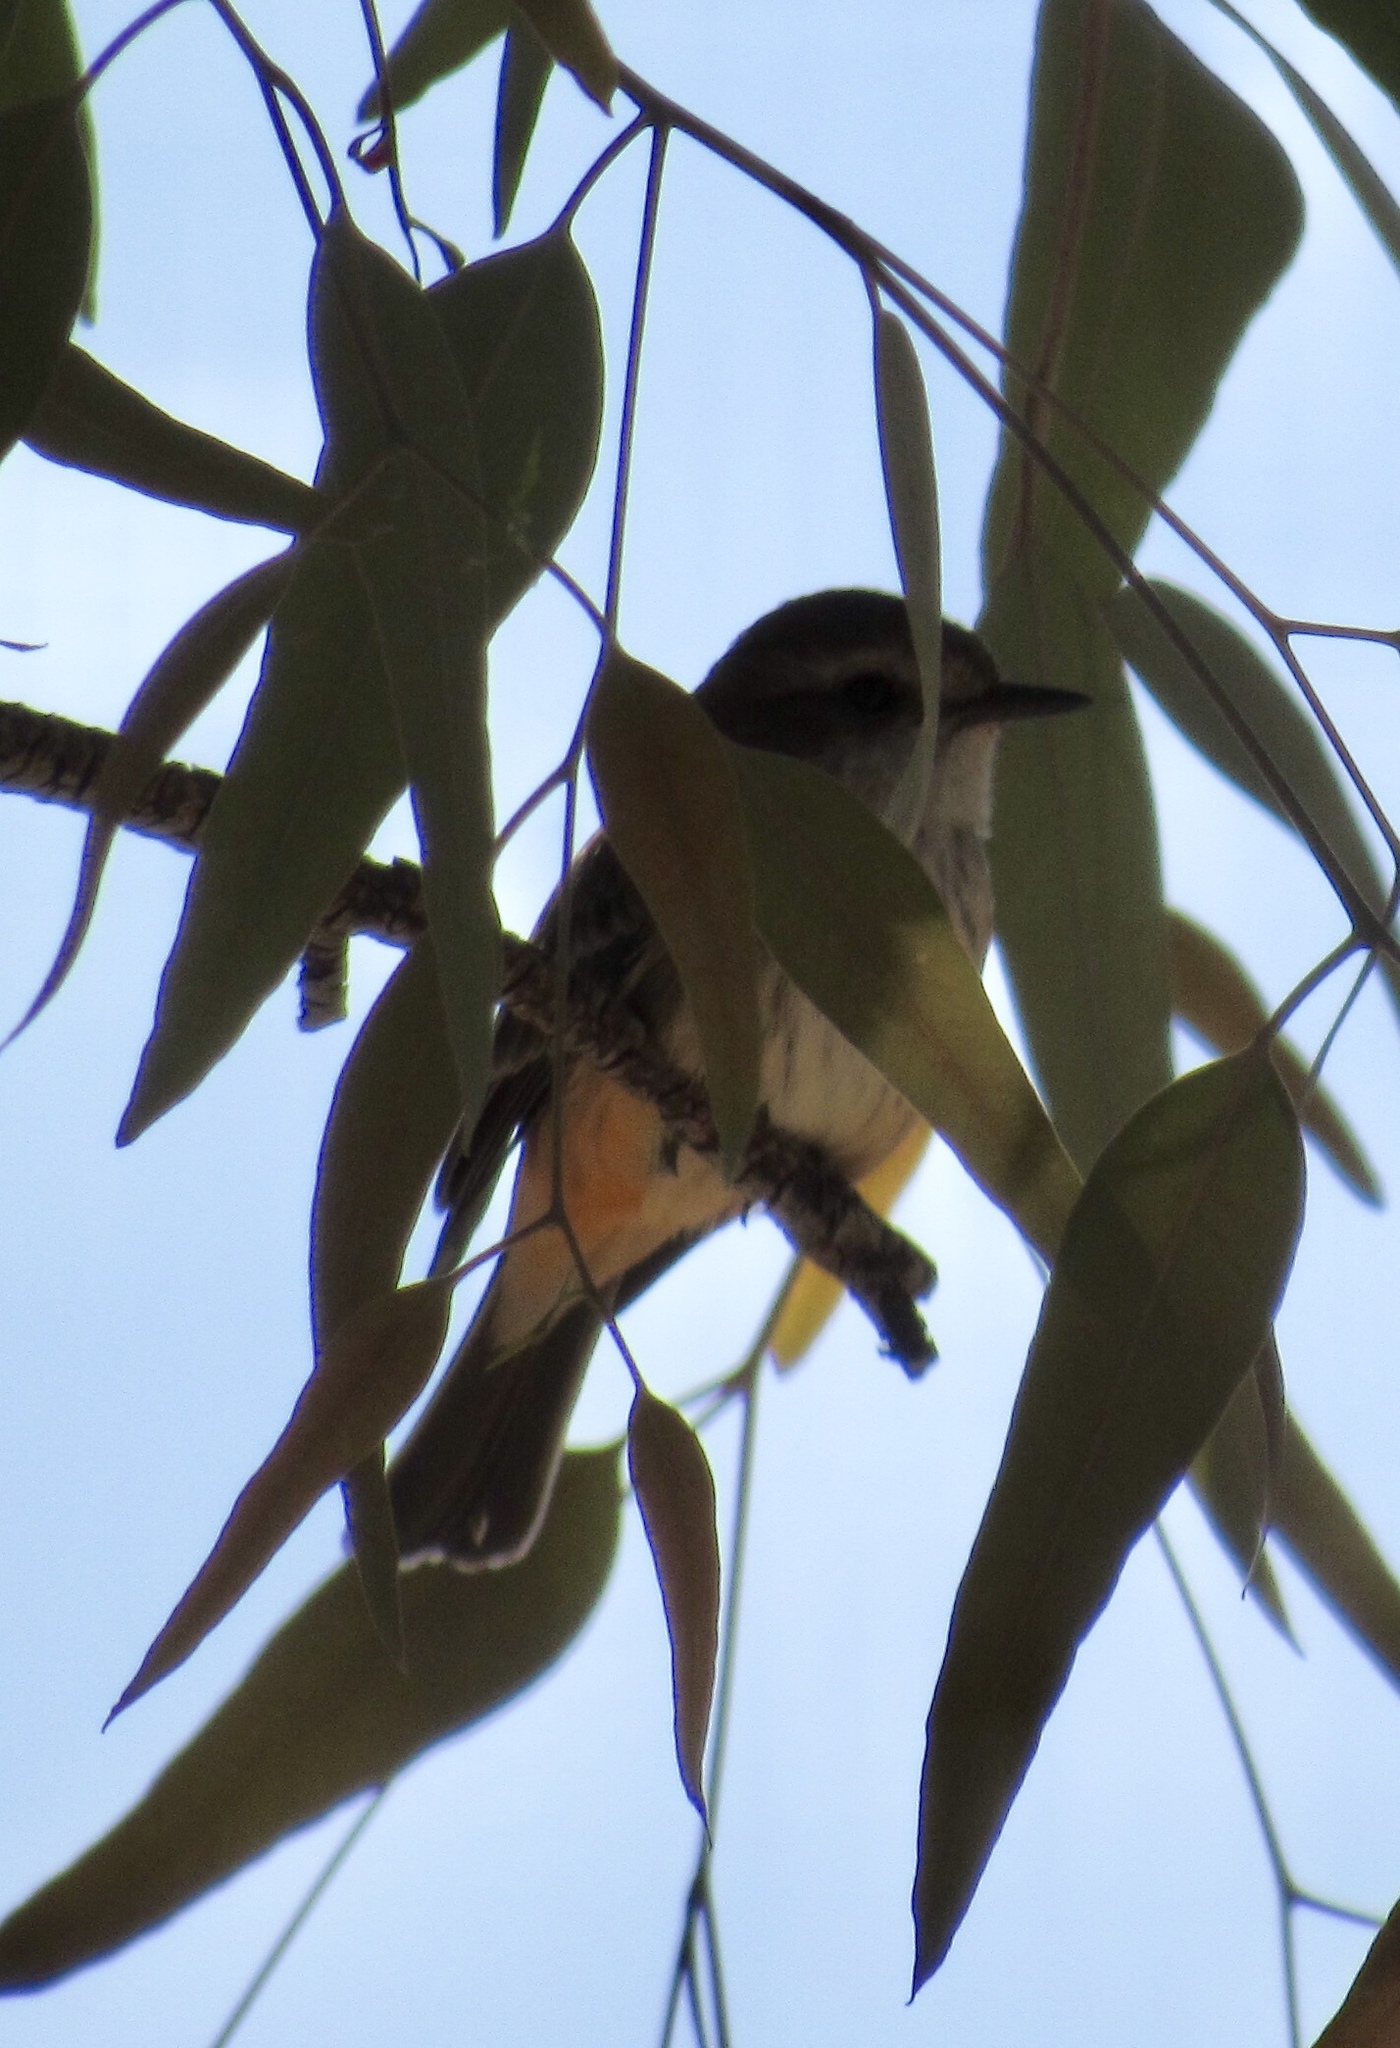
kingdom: Animalia
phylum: Chordata
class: Aves
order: Passeriformes
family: Tyrannidae
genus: Pyrocephalus
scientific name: Pyrocephalus rubinus
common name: Vermilion flycatcher
